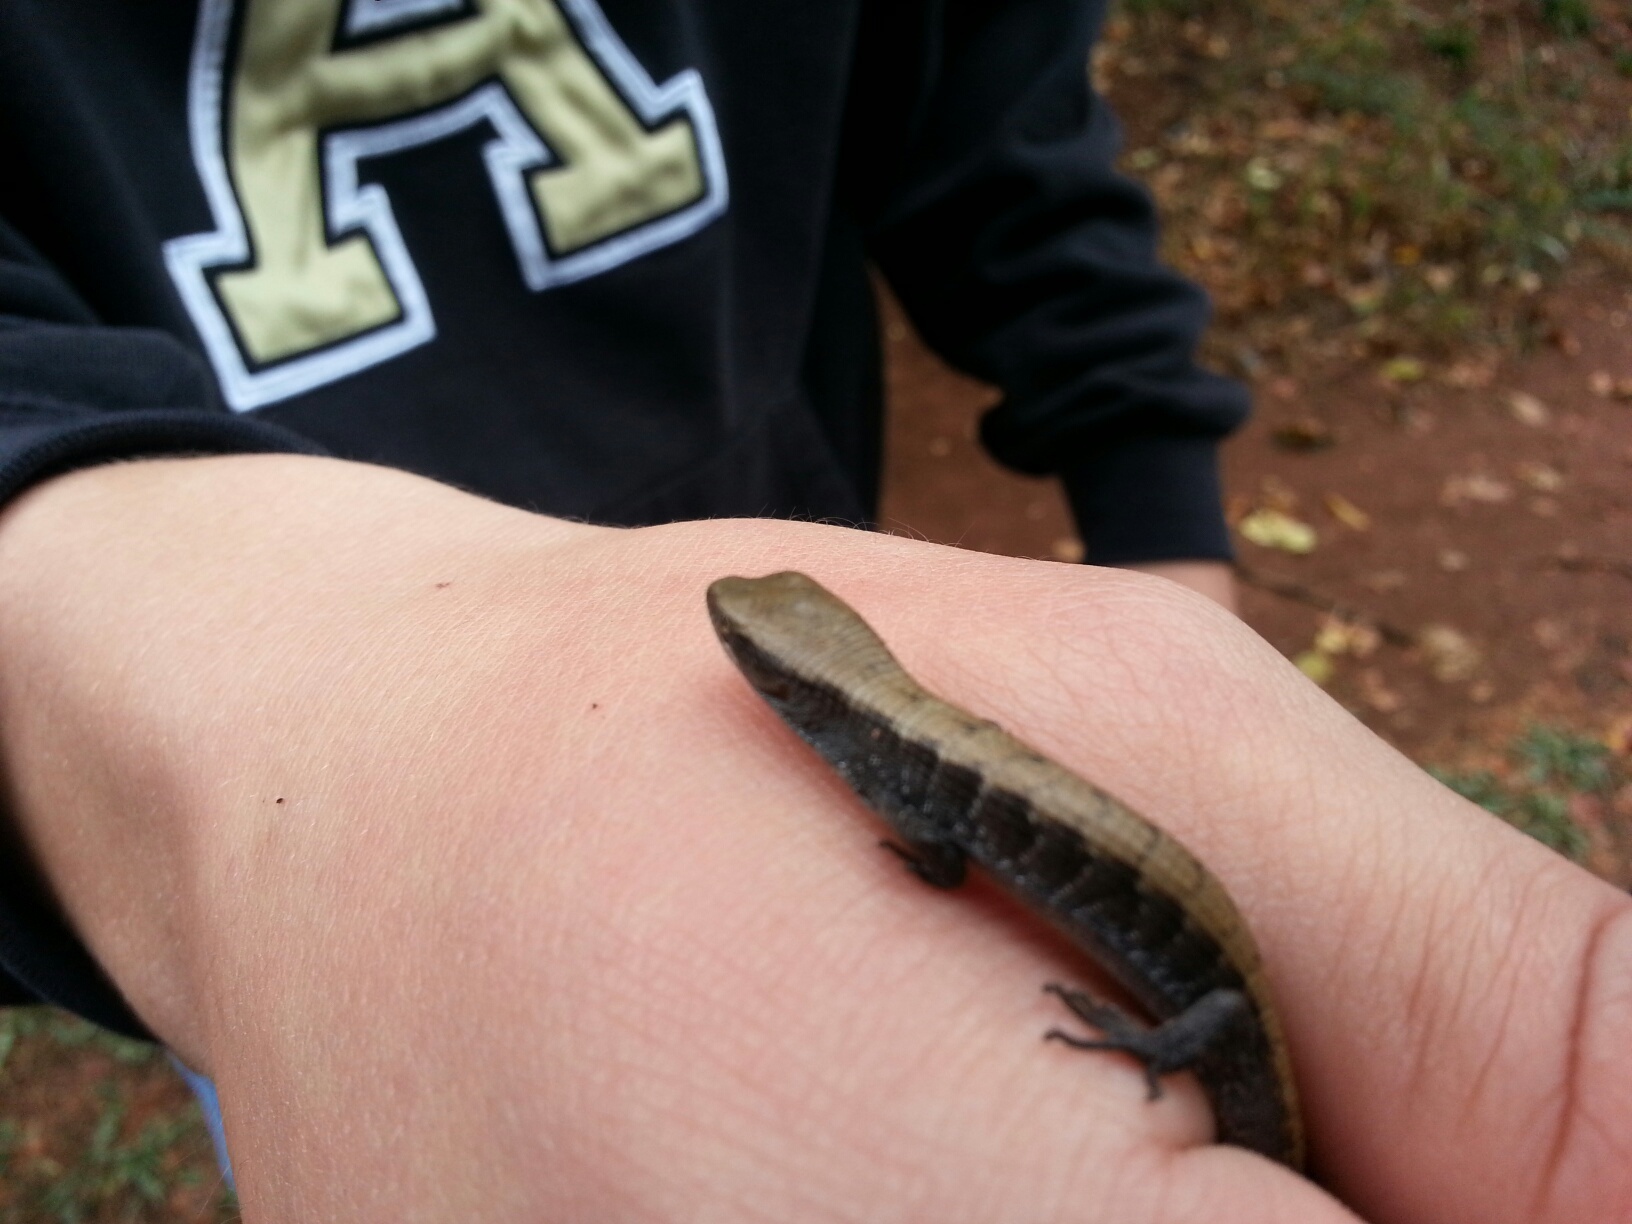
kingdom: Animalia
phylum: Chordata
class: Squamata
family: Anguidae
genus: Elgaria
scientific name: Elgaria multicarinata
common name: Southern alligator lizard
